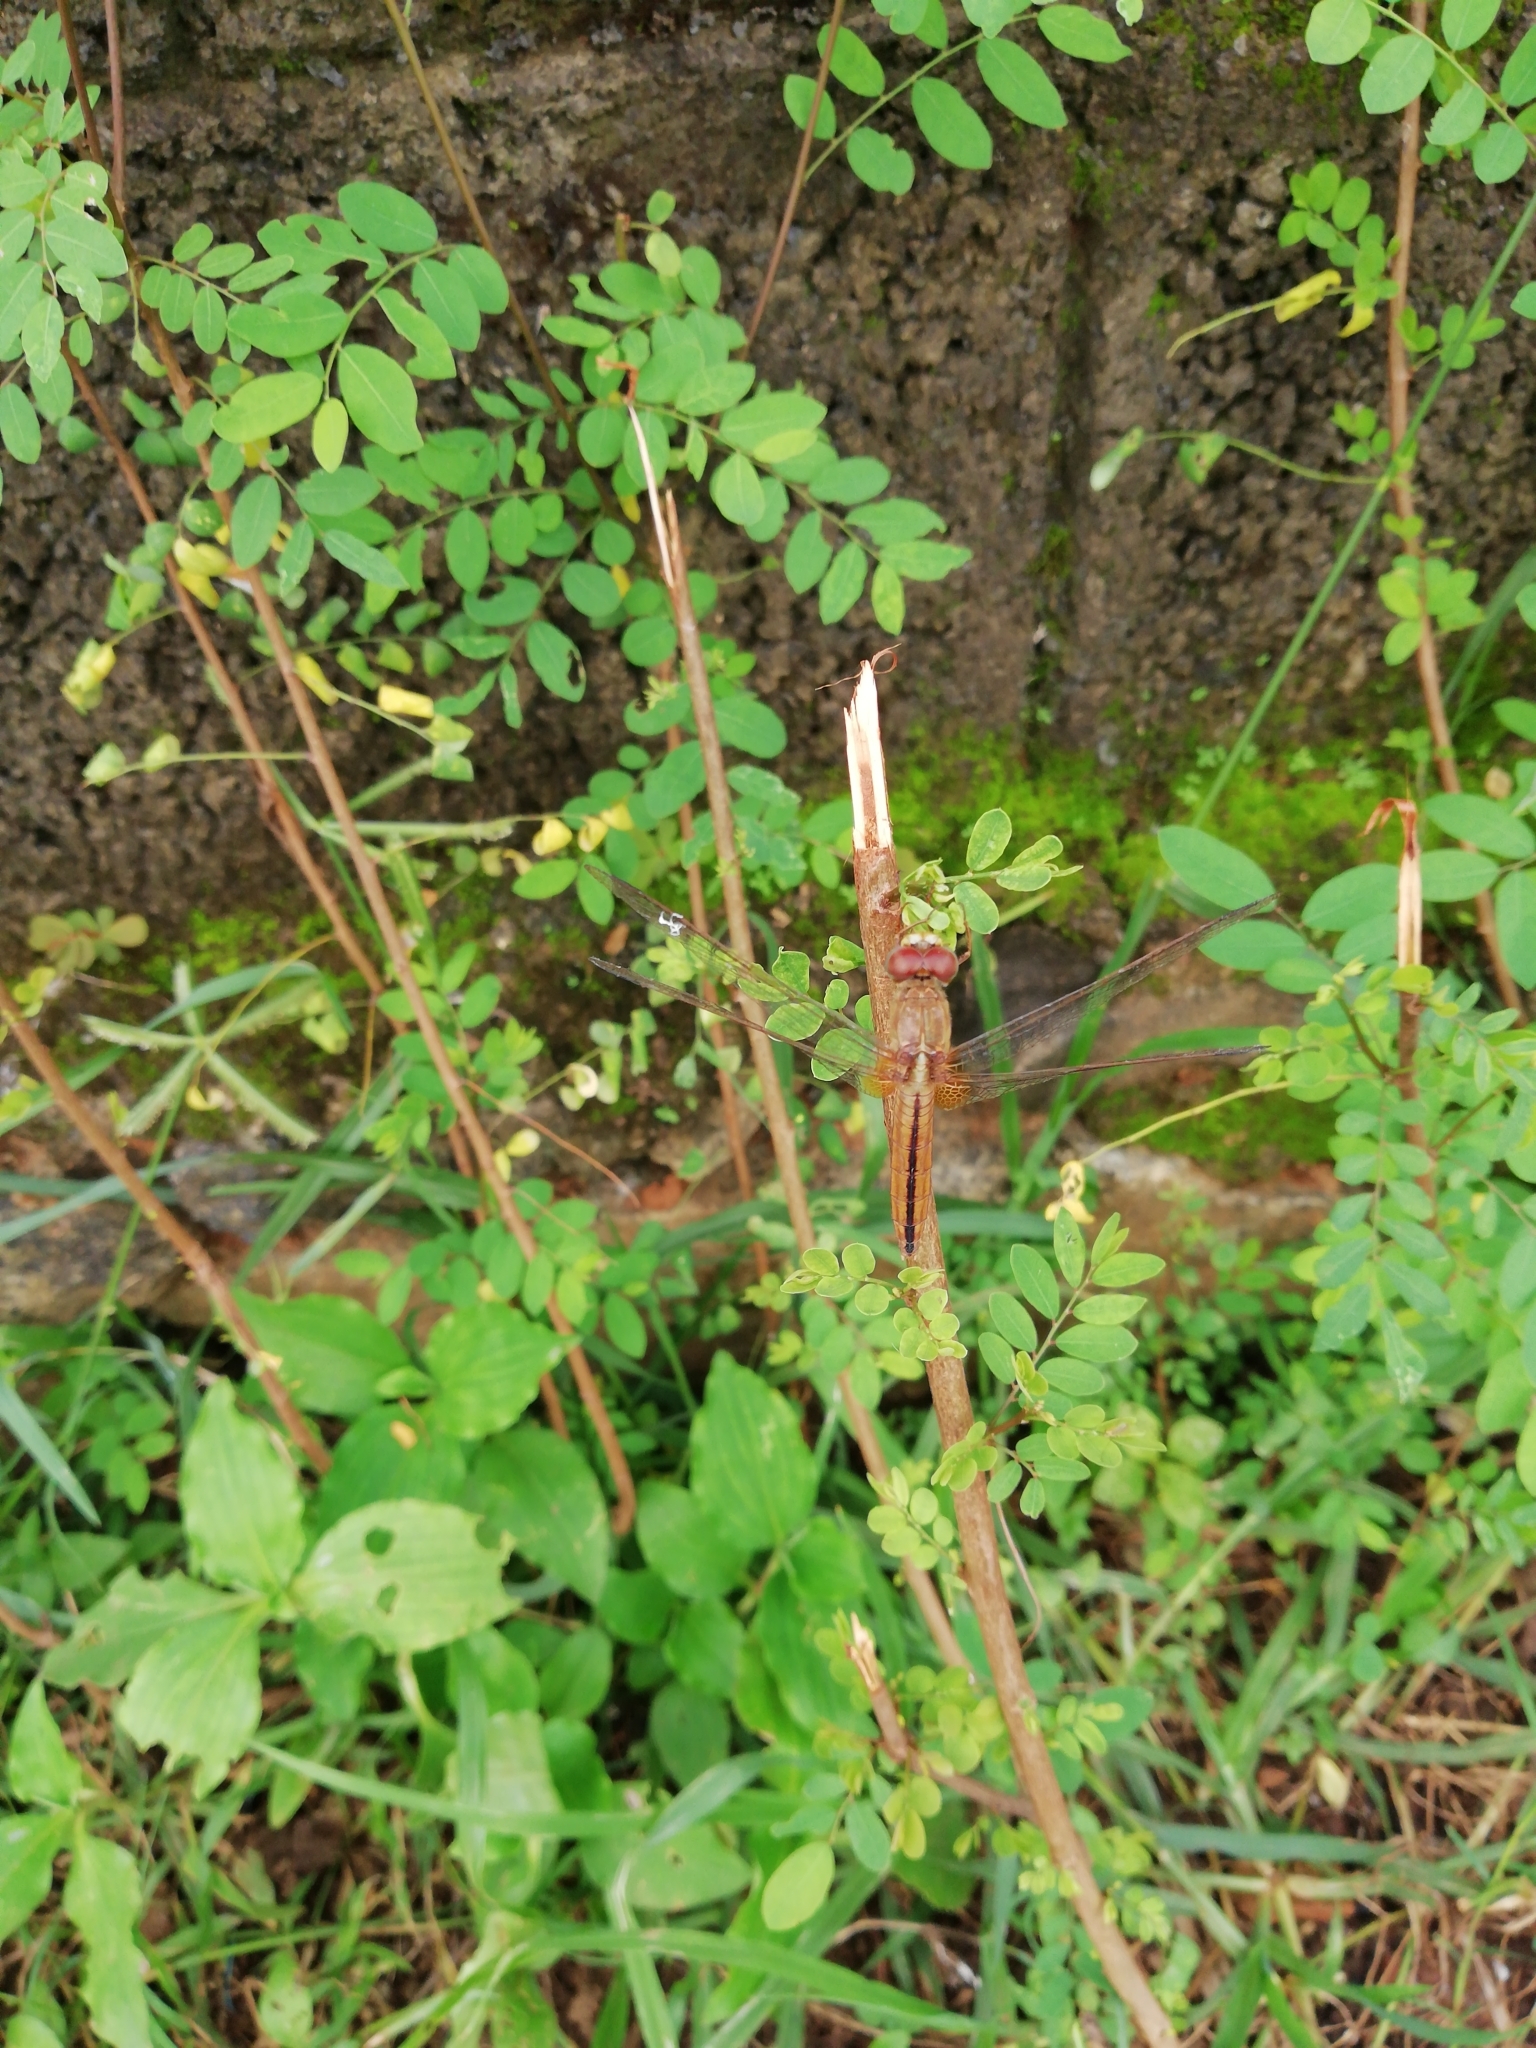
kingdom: Animalia
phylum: Arthropoda
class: Insecta
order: Odonata
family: Libellulidae
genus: Crocothemis
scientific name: Crocothemis servilia
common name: Scarlet skimmer
